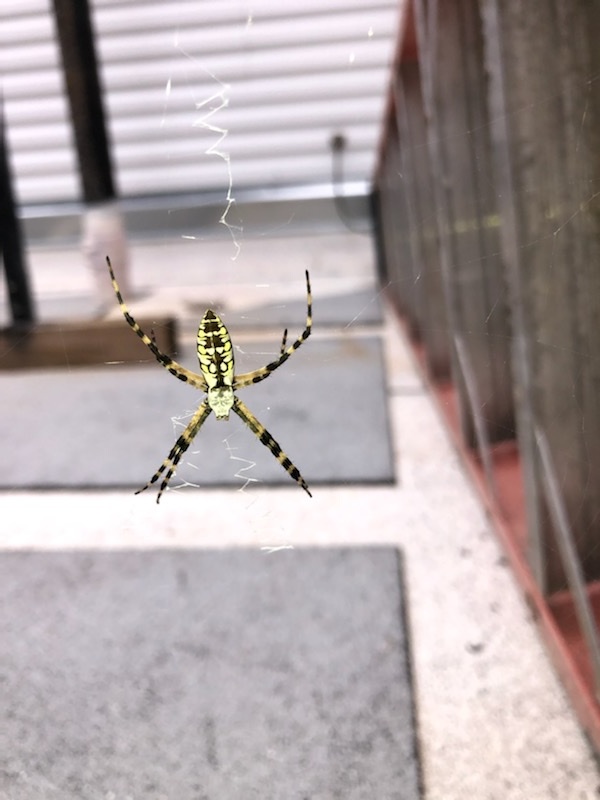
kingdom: Animalia
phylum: Arthropoda
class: Arachnida
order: Araneae
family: Araneidae
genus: Argiope
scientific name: Argiope aurantia
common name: Orb weavers
